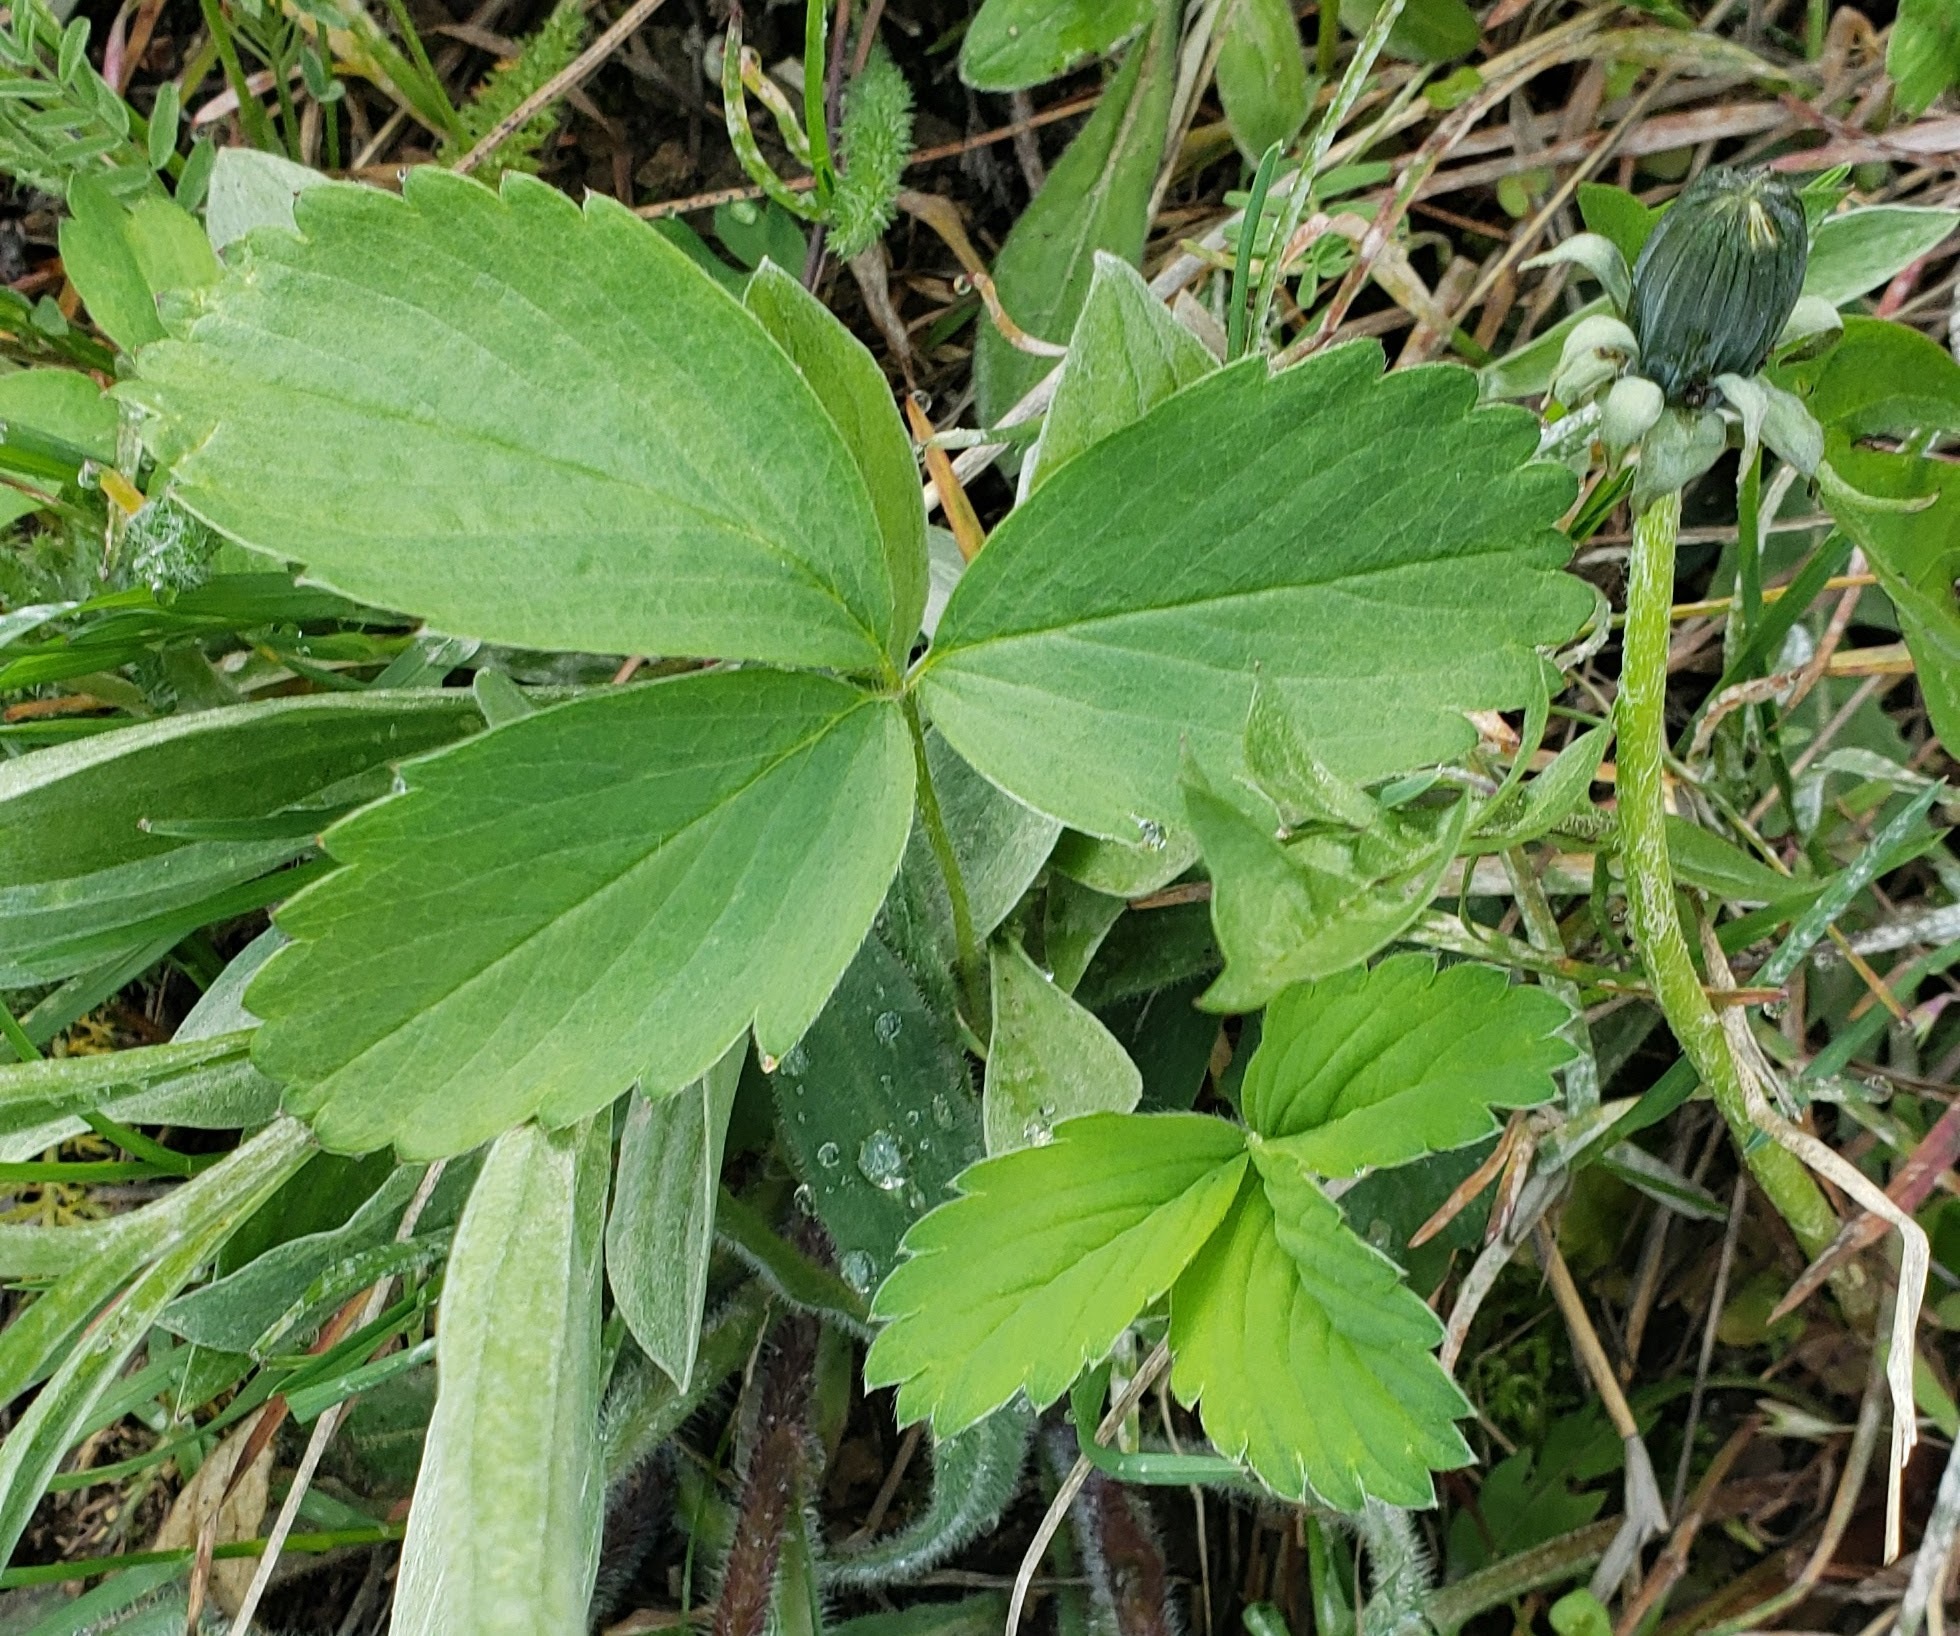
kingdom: Plantae
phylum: Tracheophyta
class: Magnoliopsida
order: Rosales
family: Rosaceae
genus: Fragaria
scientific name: Fragaria virginiana
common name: Thickleaved wild strawberry
